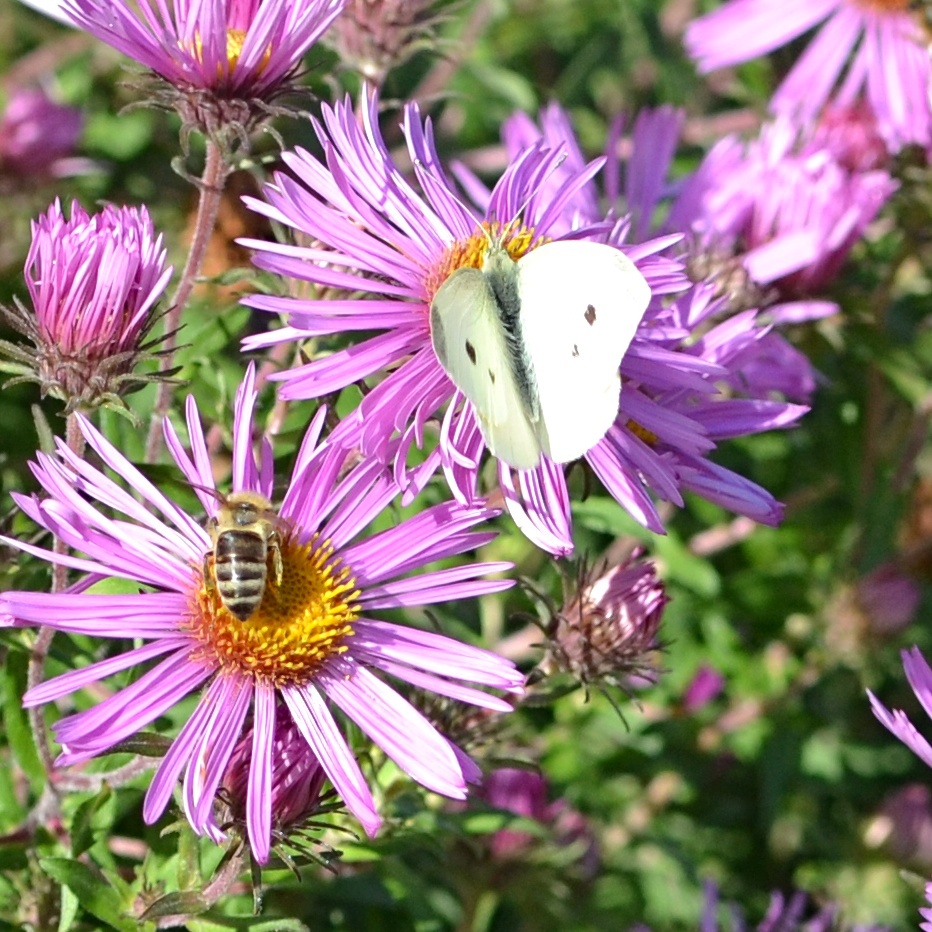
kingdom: Animalia
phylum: Arthropoda
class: Insecta
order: Lepidoptera
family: Pieridae
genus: Pieris
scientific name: Pieris rapae
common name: Small white
